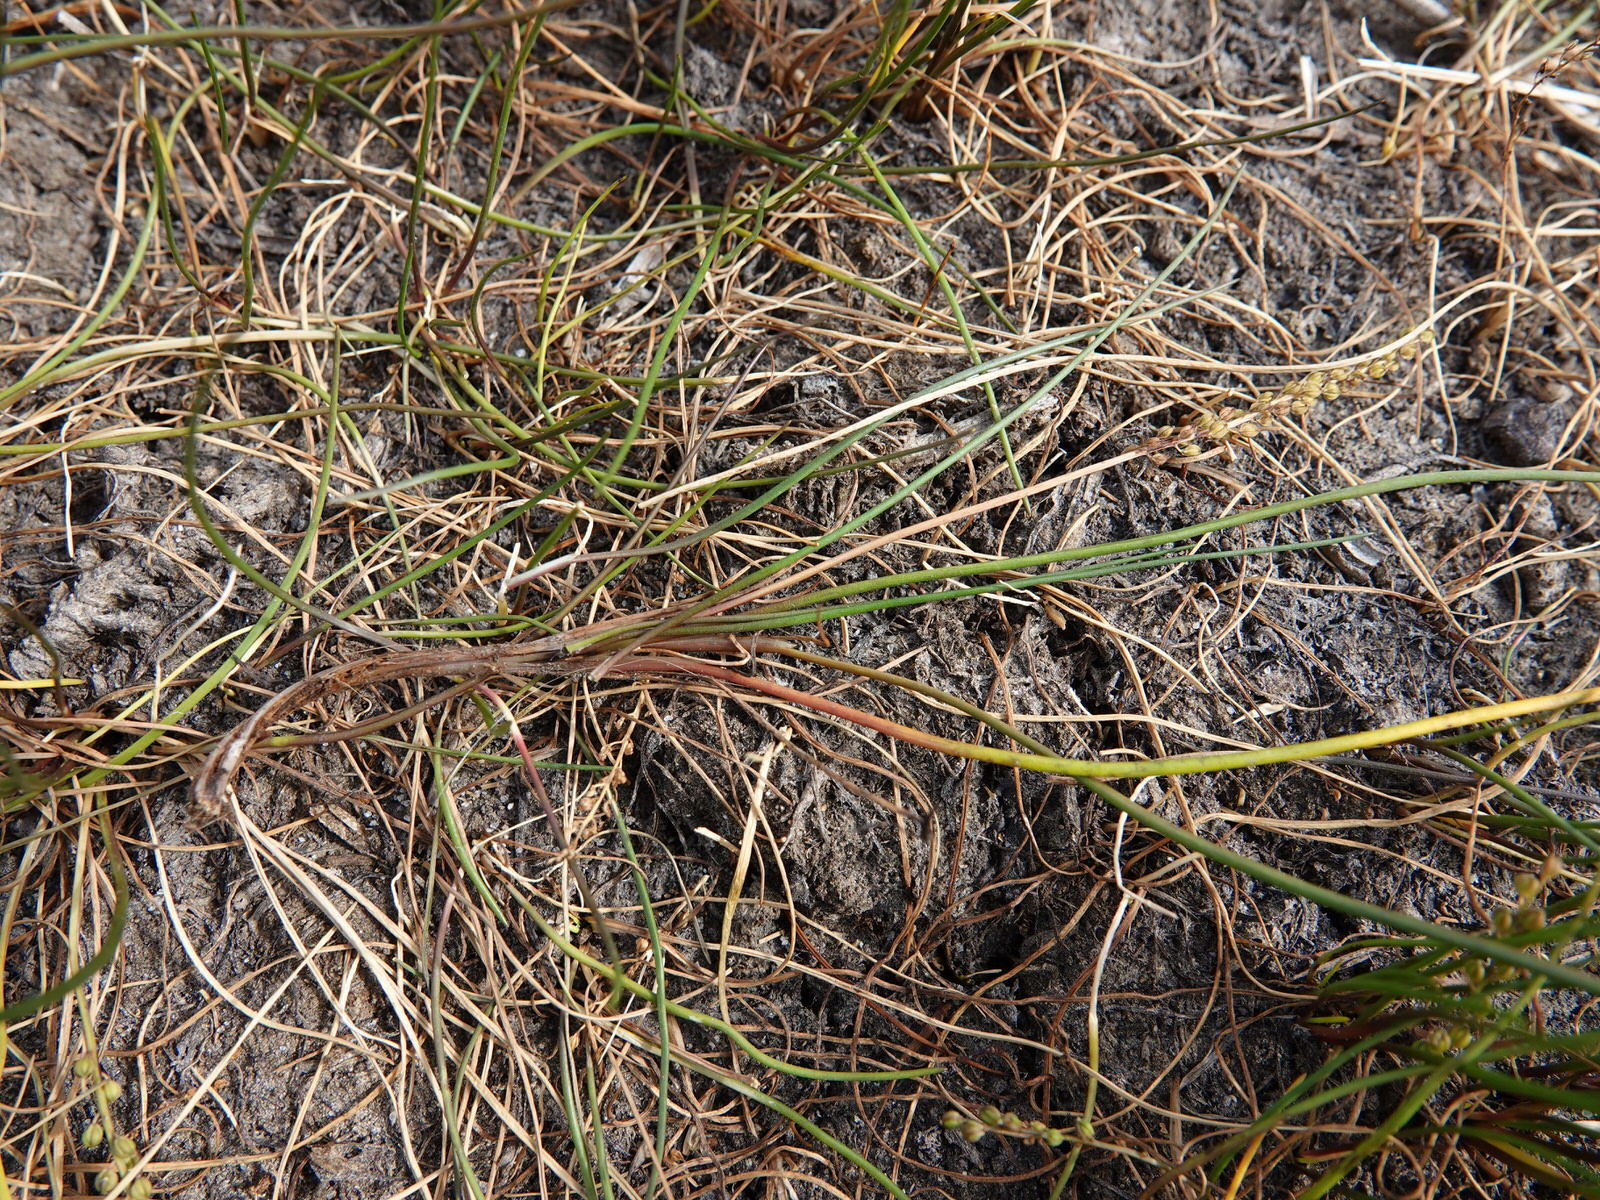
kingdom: Plantae
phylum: Tracheophyta
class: Liliopsida
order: Alismatales
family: Juncaginaceae
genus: Triglochin
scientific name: Triglochin striata
